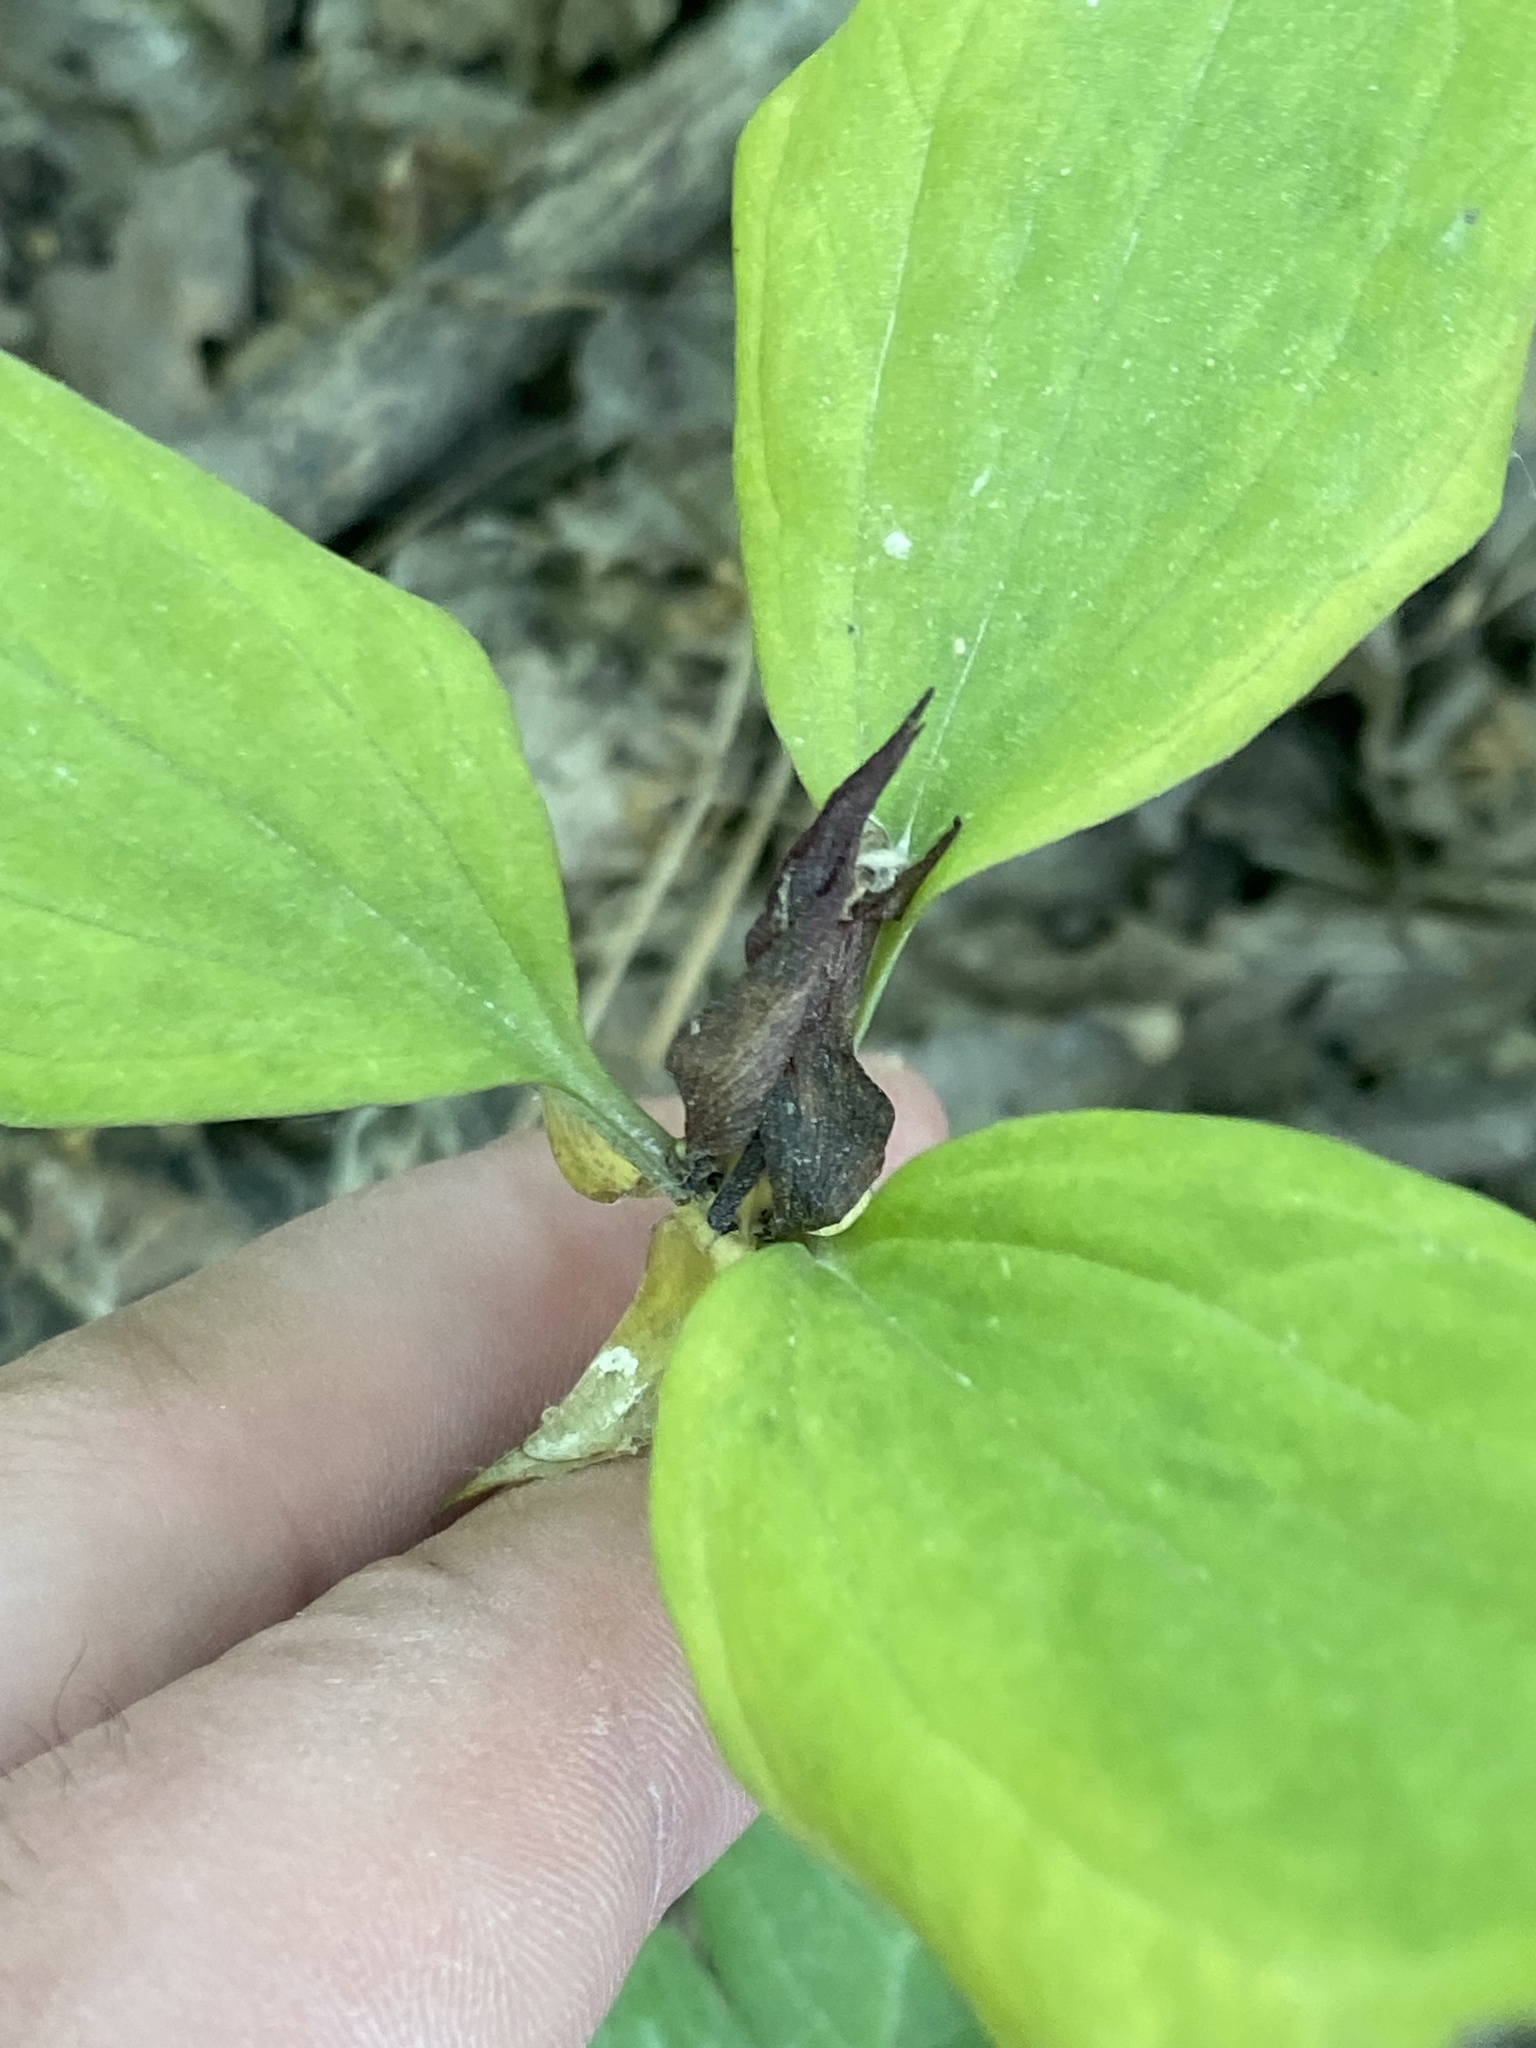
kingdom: Plantae
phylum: Tracheophyta
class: Liliopsida
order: Liliales
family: Melanthiaceae
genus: Trillium
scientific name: Trillium recurvatum
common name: Bloody butcher
